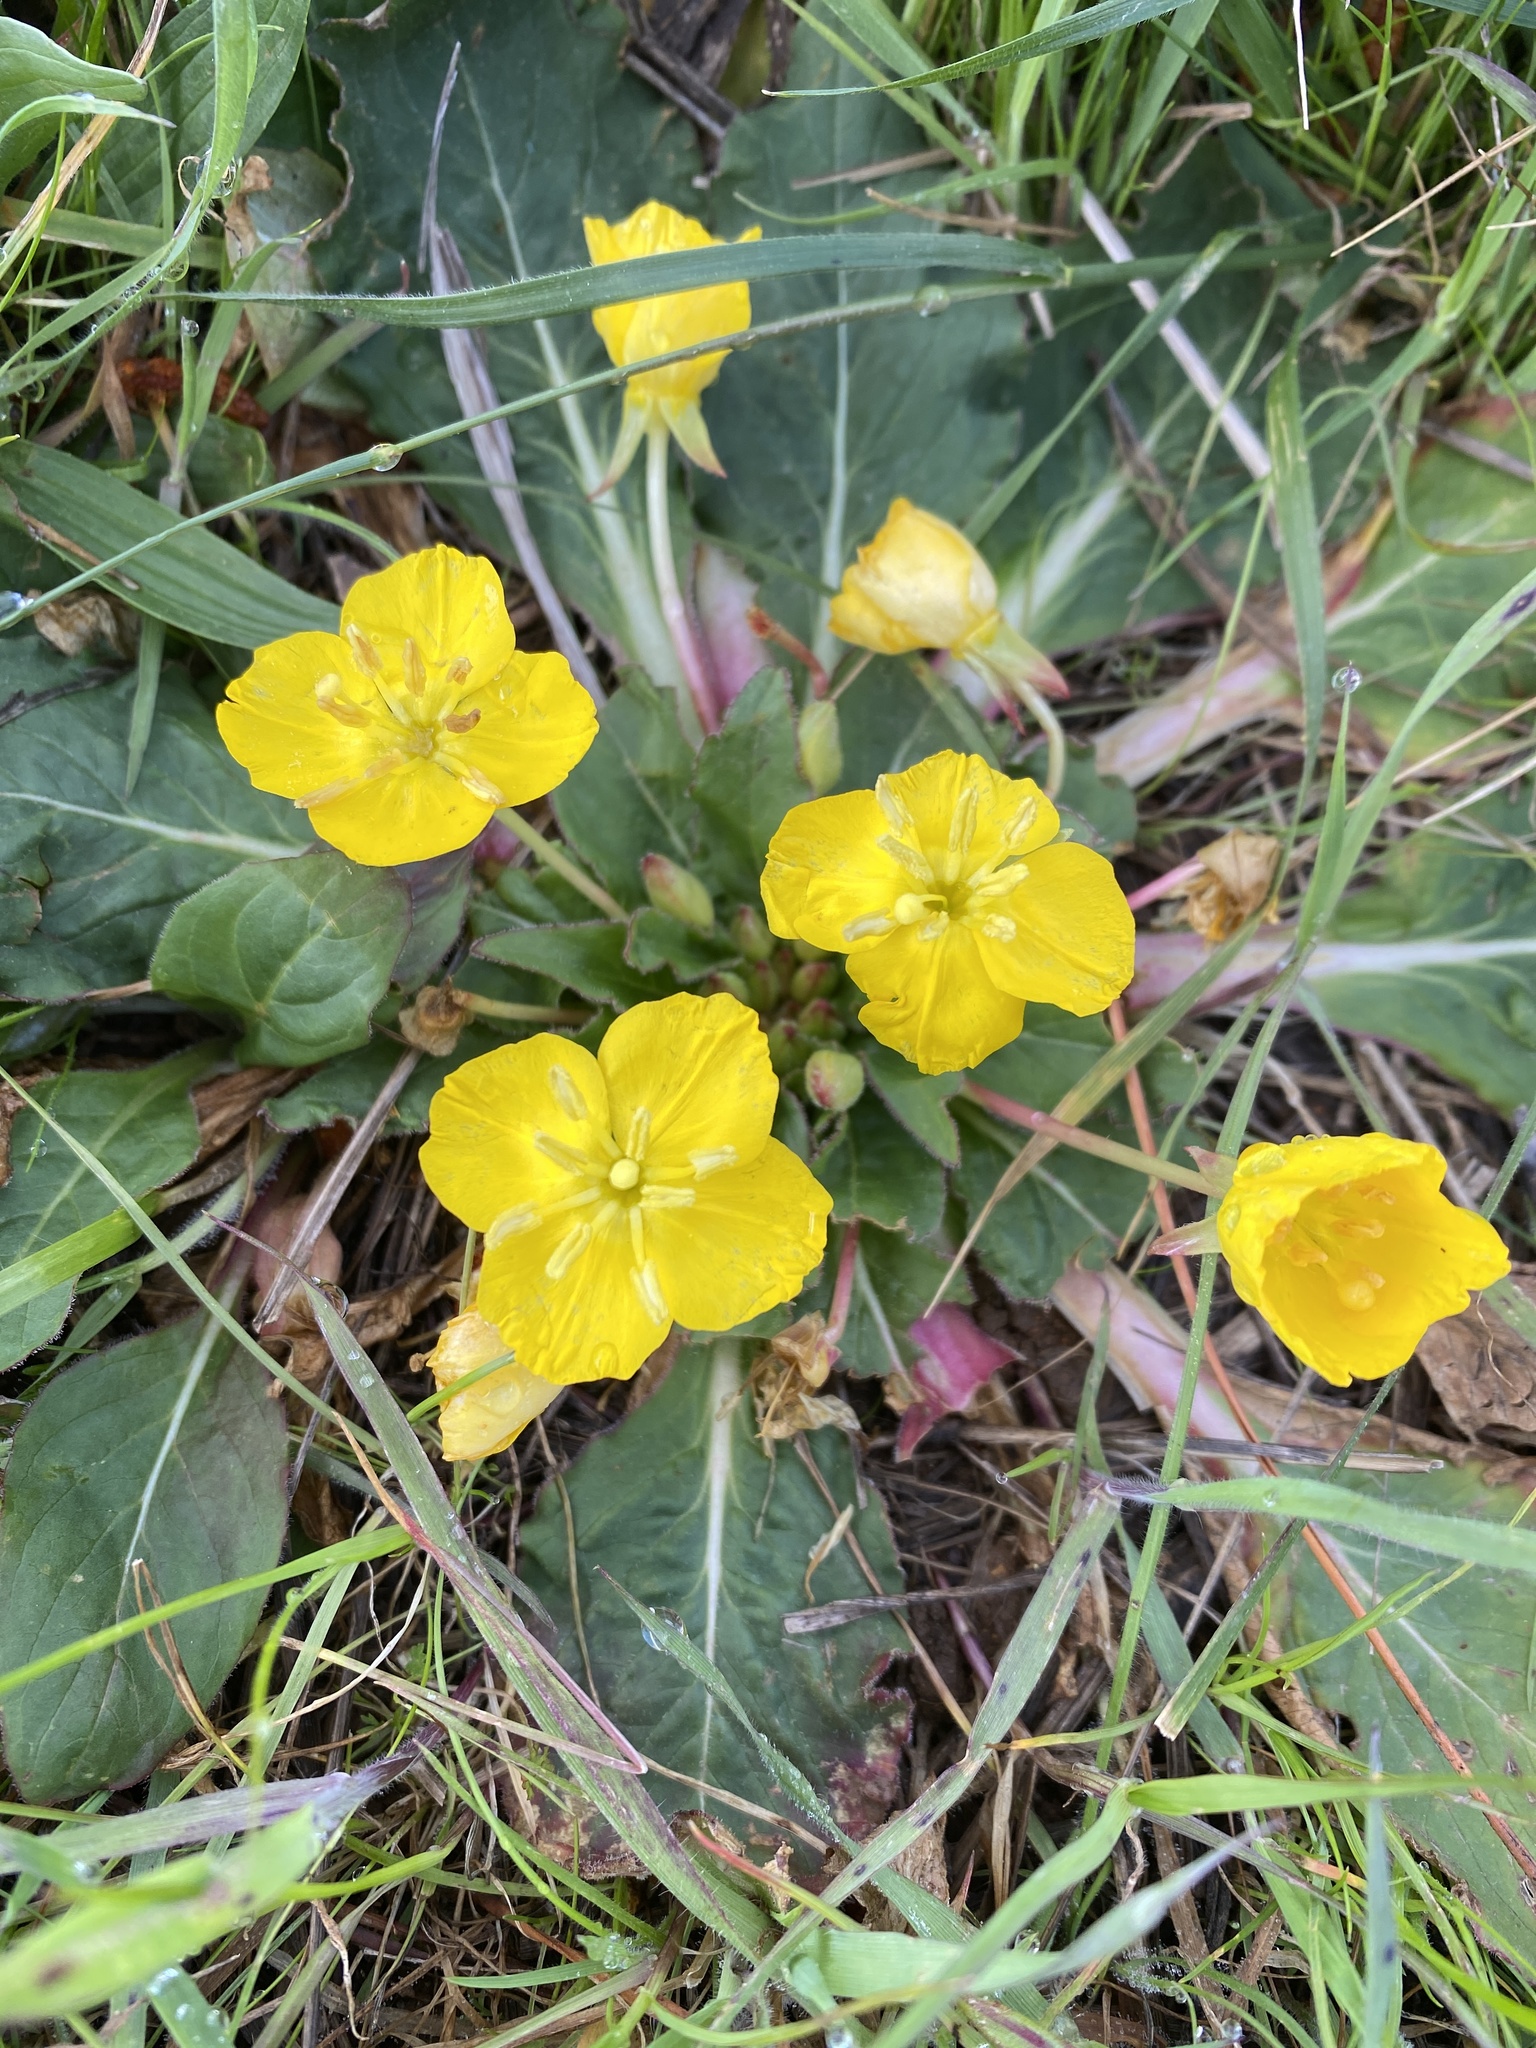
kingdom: Plantae
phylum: Tracheophyta
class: Magnoliopsida
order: Myrtales
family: Onagraceae
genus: Taraxia
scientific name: Taraxia ovata
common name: Goldeneggs
